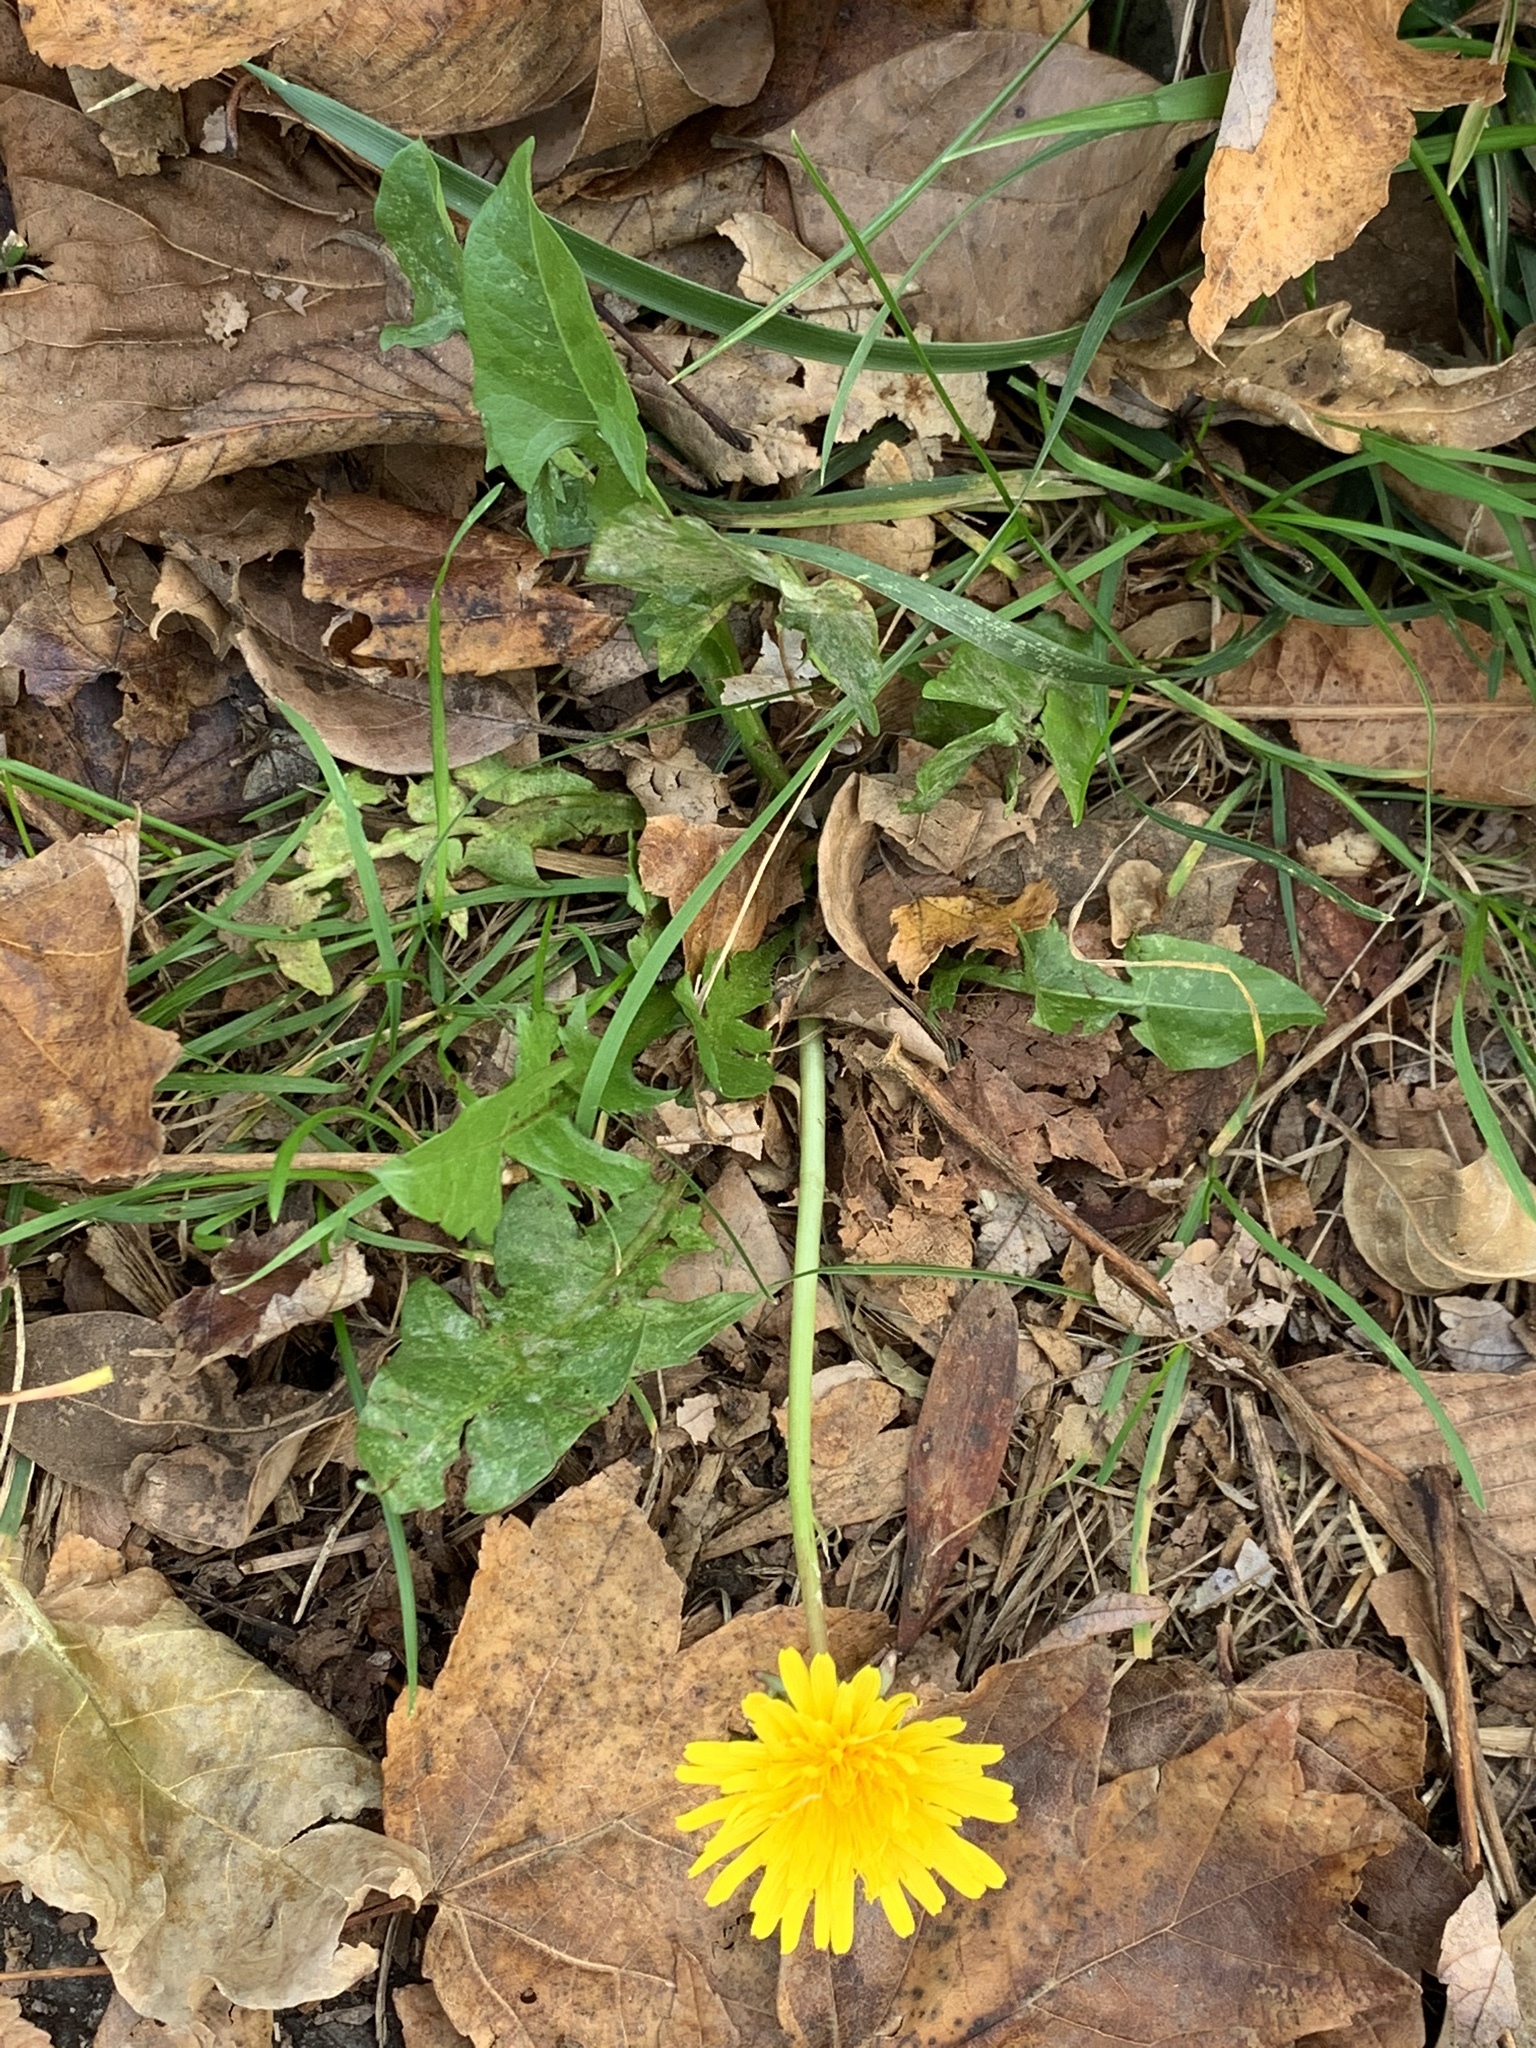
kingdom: Plantae
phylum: Tracheophyta
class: Magnoliopsida
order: Asterales
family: Asteraceae
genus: Taraxacum
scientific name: Taraxacum officinale
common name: Common dandelion
